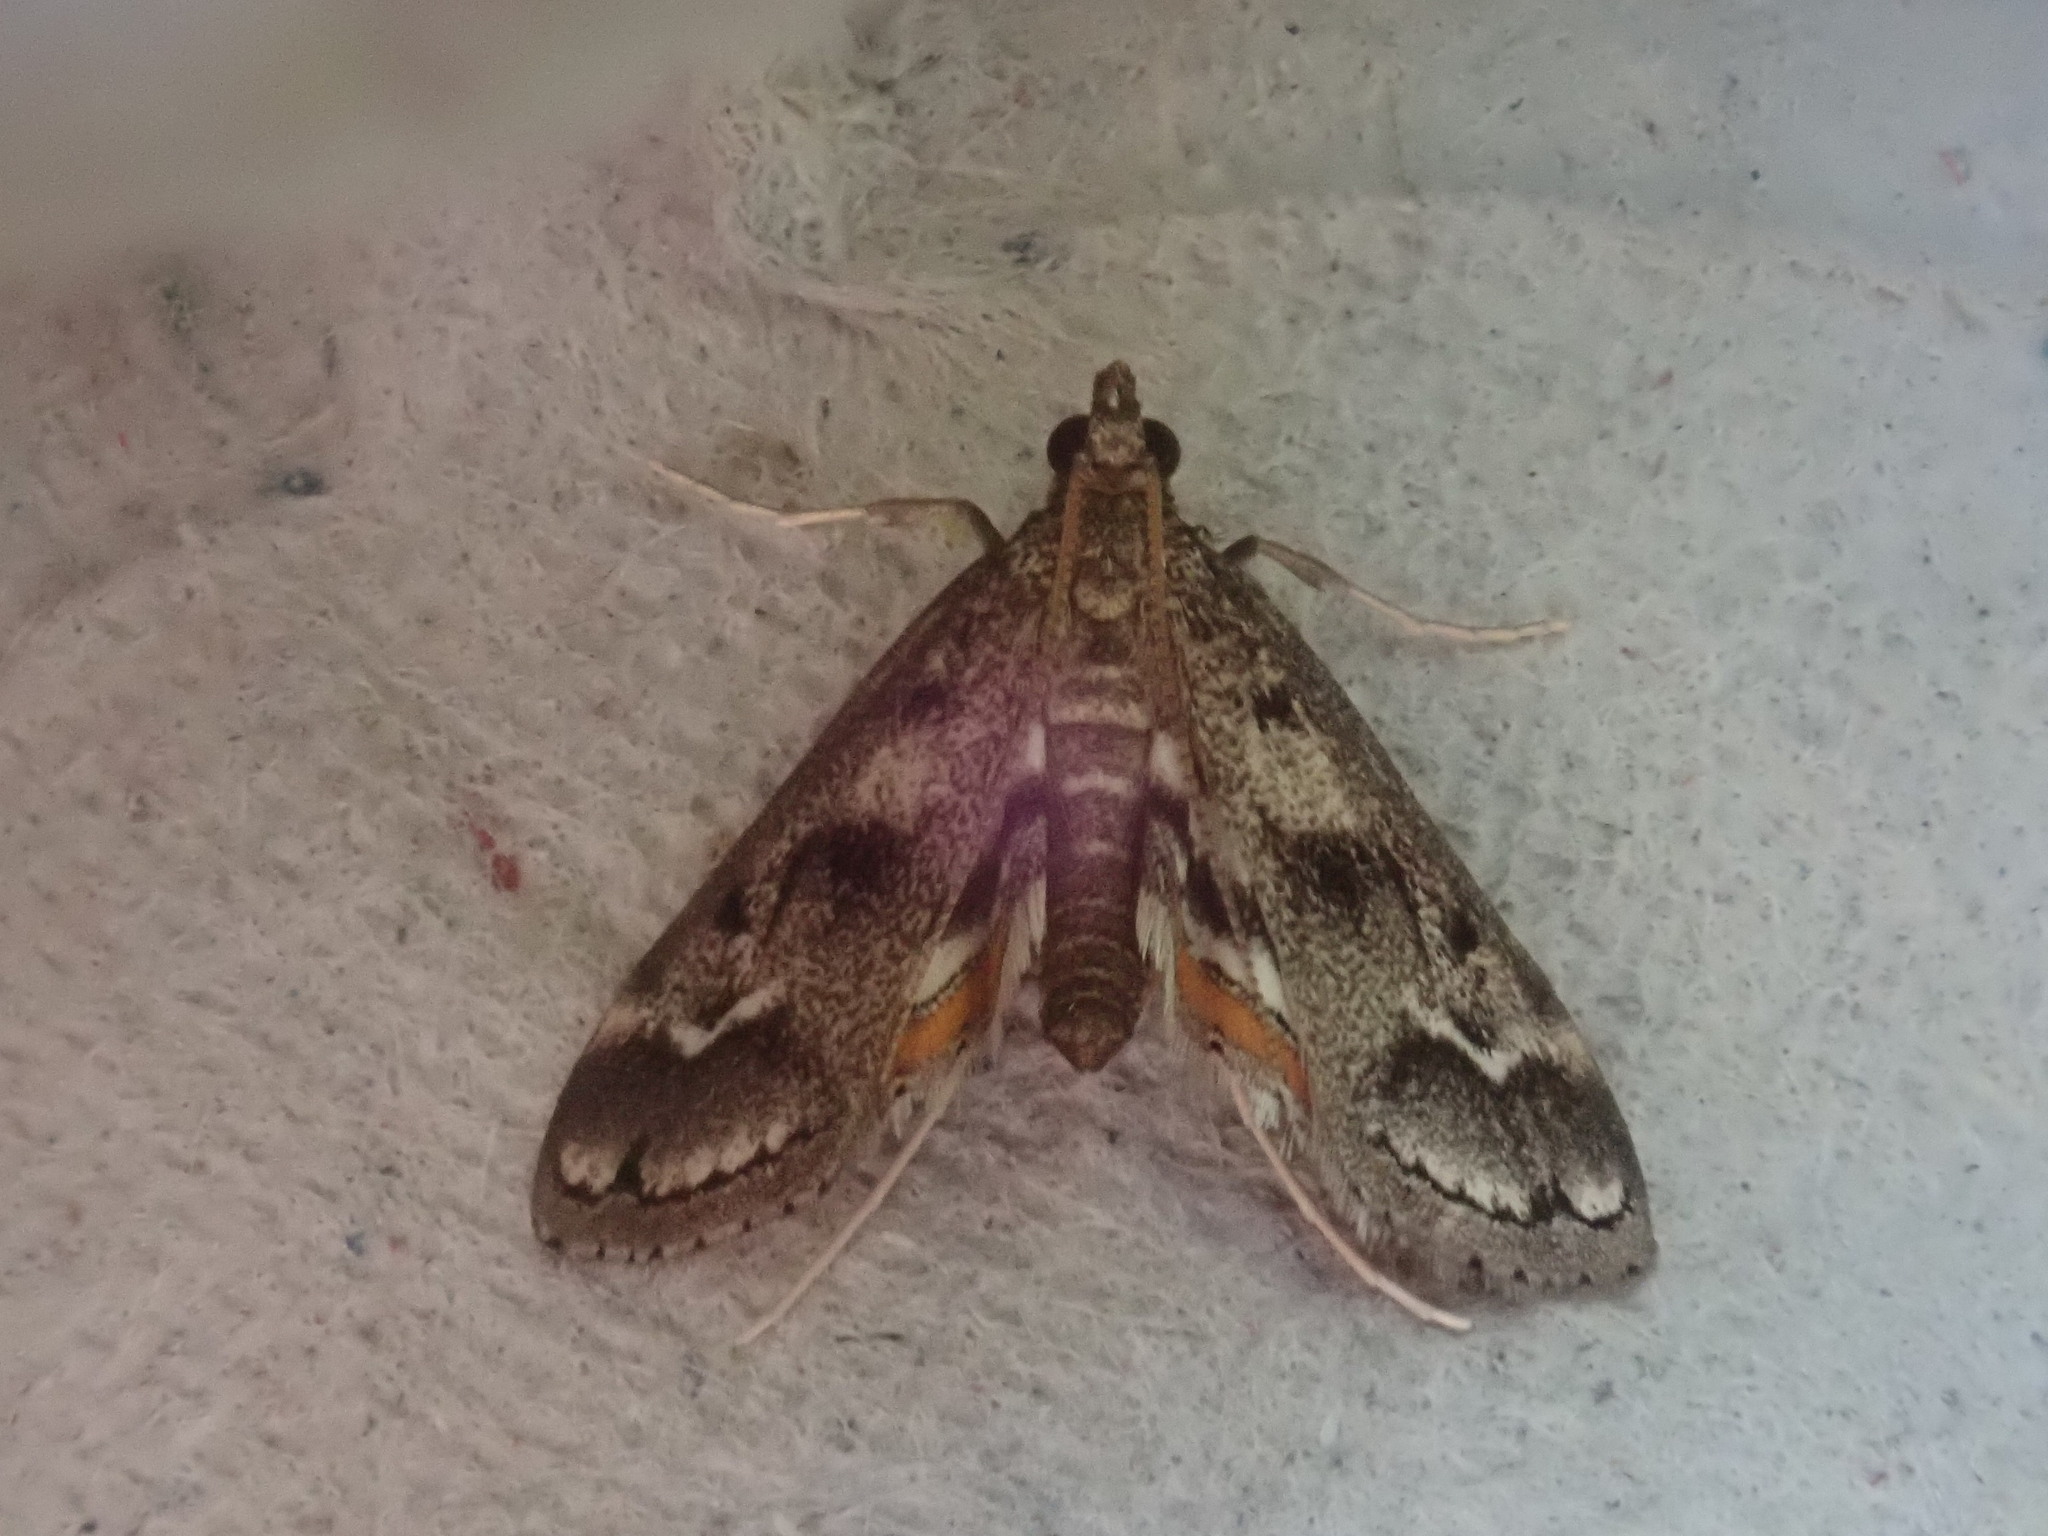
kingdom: Animalia
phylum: Arthropoda
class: Insecta
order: Lepidoptera
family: Crambidae
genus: Parapoynx
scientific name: Parapoynx obscuralis
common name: American china-mark
